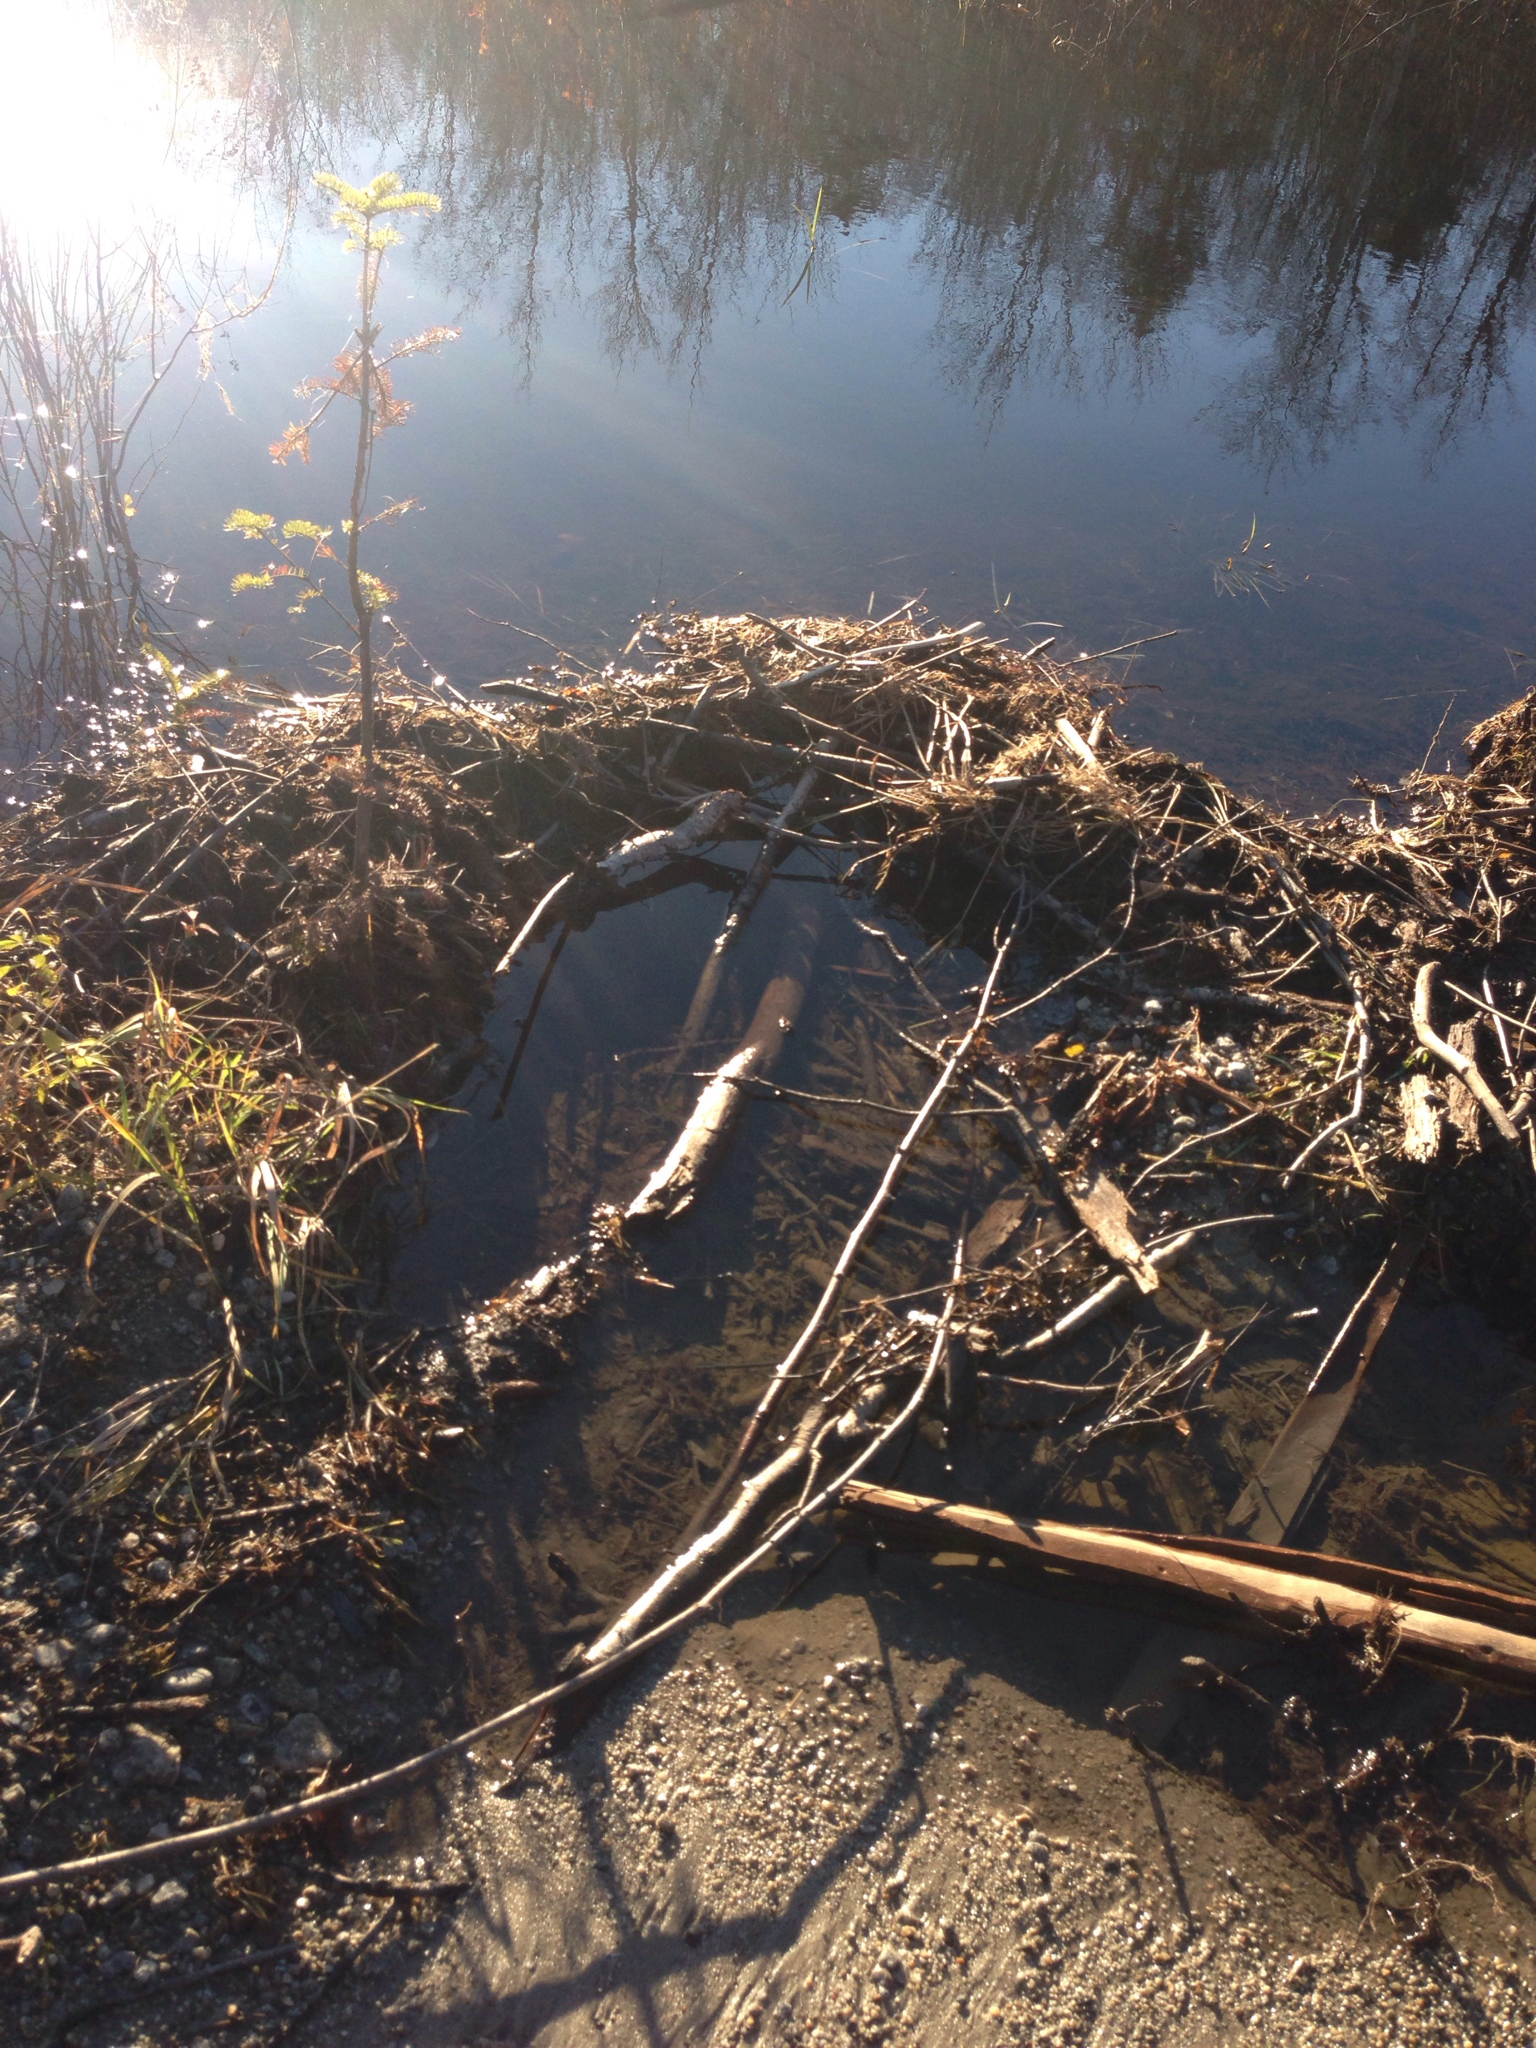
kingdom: Animalia
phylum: Chordata
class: Mammalia
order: Rodentia
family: Castoridae
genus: Castor
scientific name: Castor canadensis
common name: American beaver
